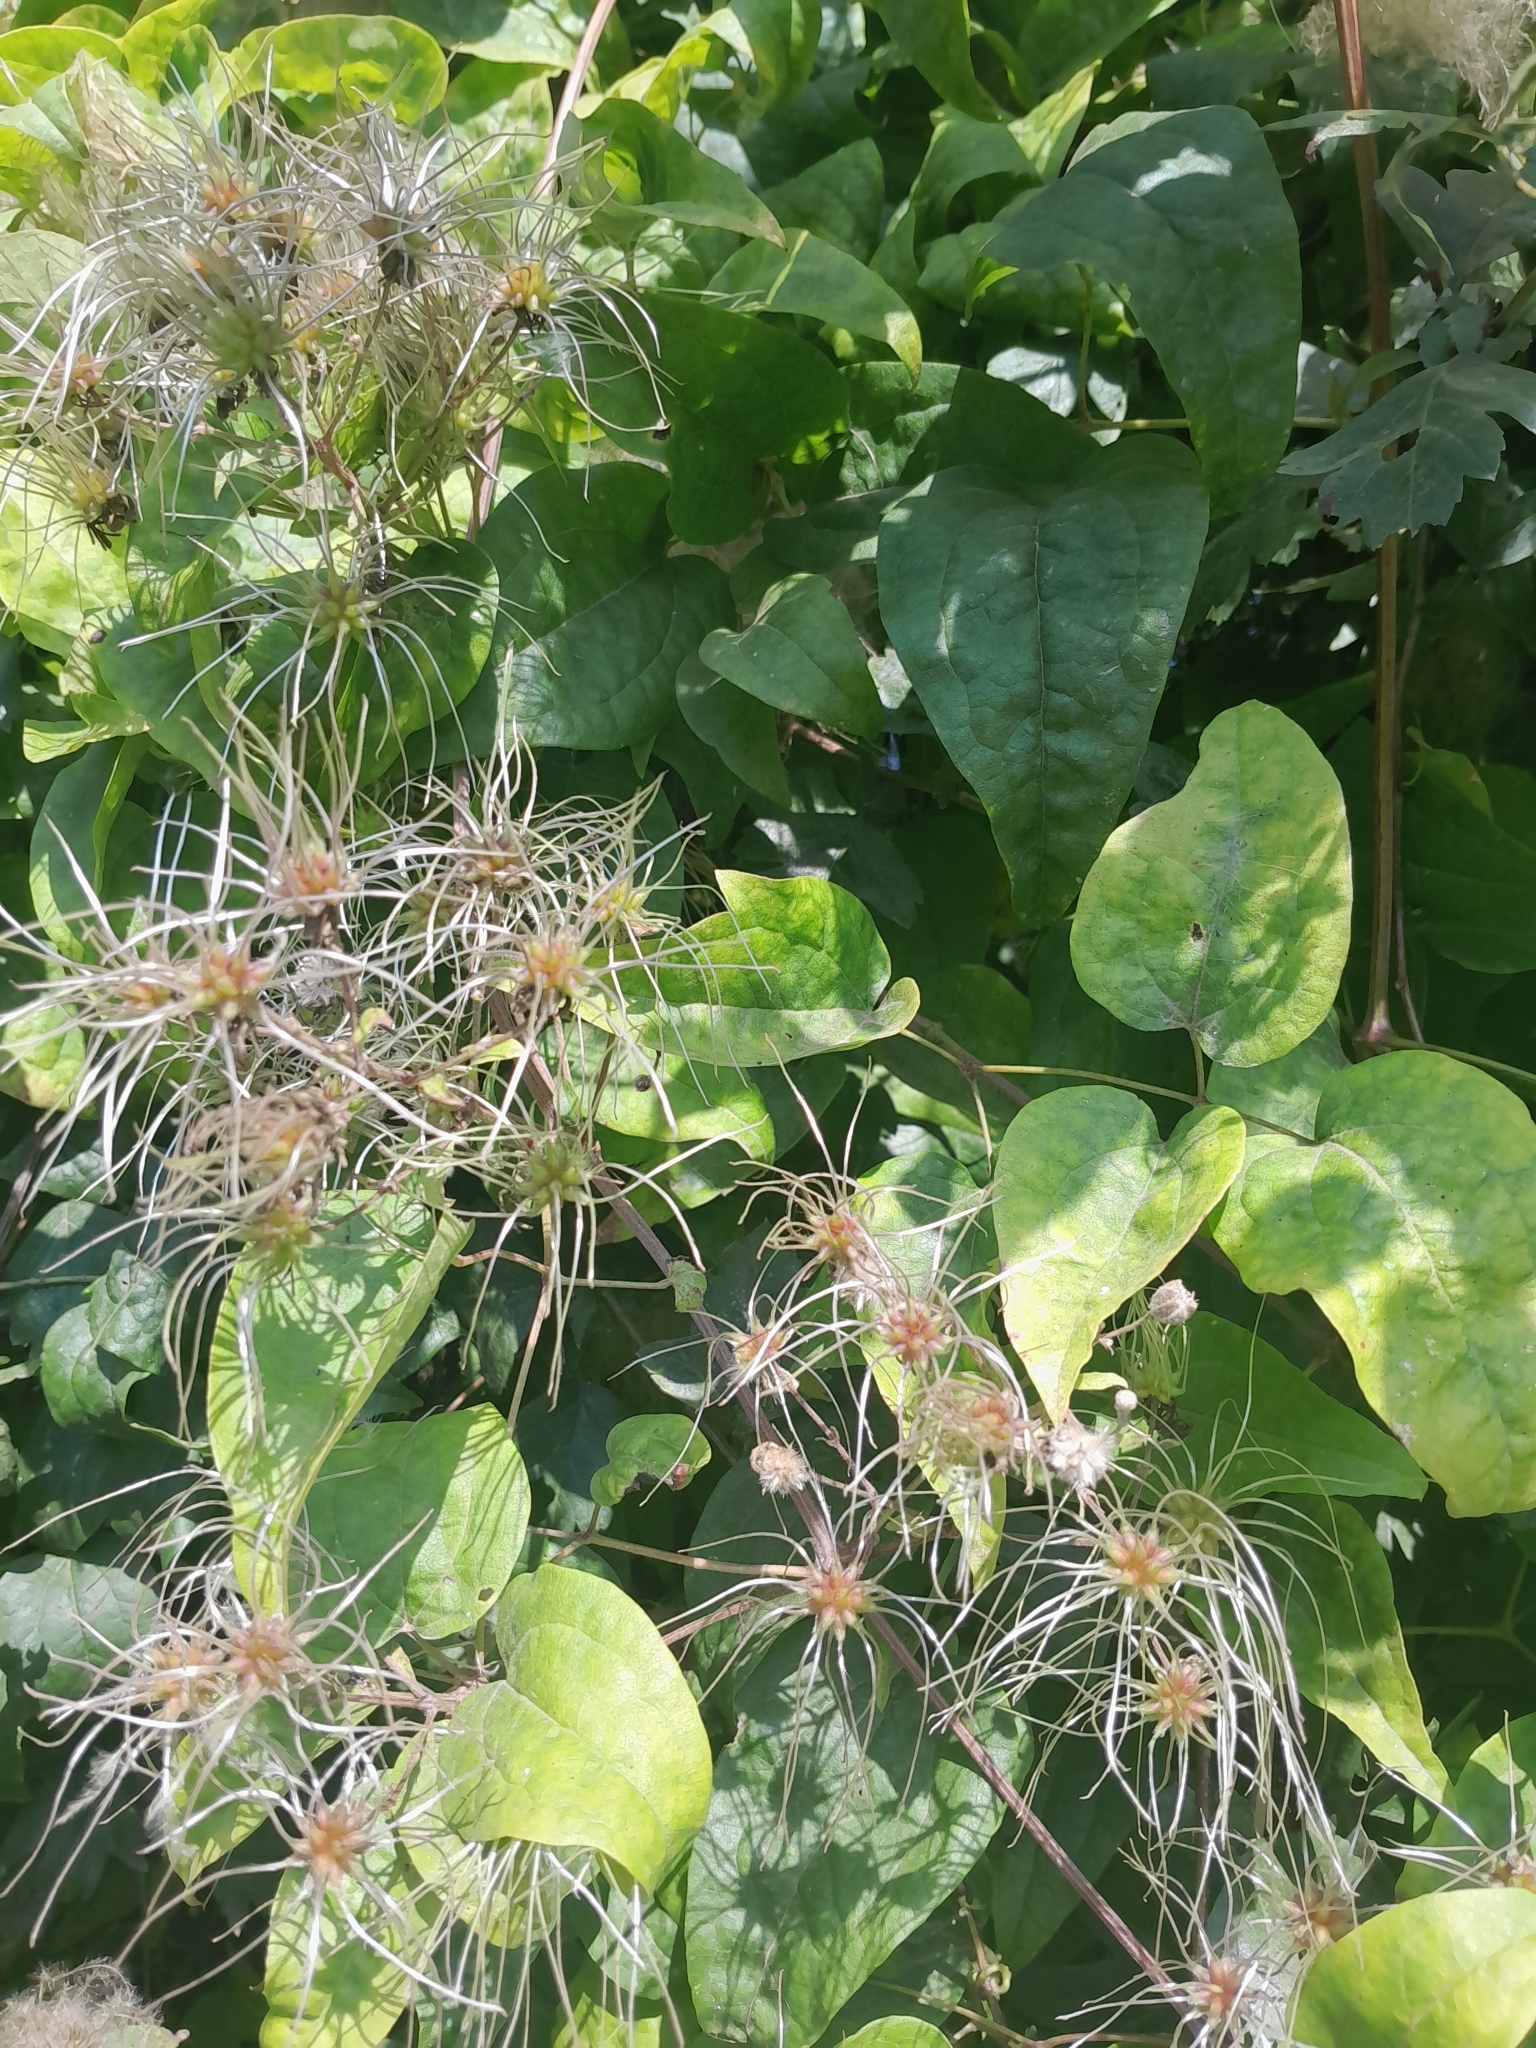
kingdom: Plantae
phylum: Tracheophyta
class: Magnoliopsida
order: Ranunculales
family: Ranunculaceae
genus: Clematis
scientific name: Clematis vitalba
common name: Evergreen clematis
